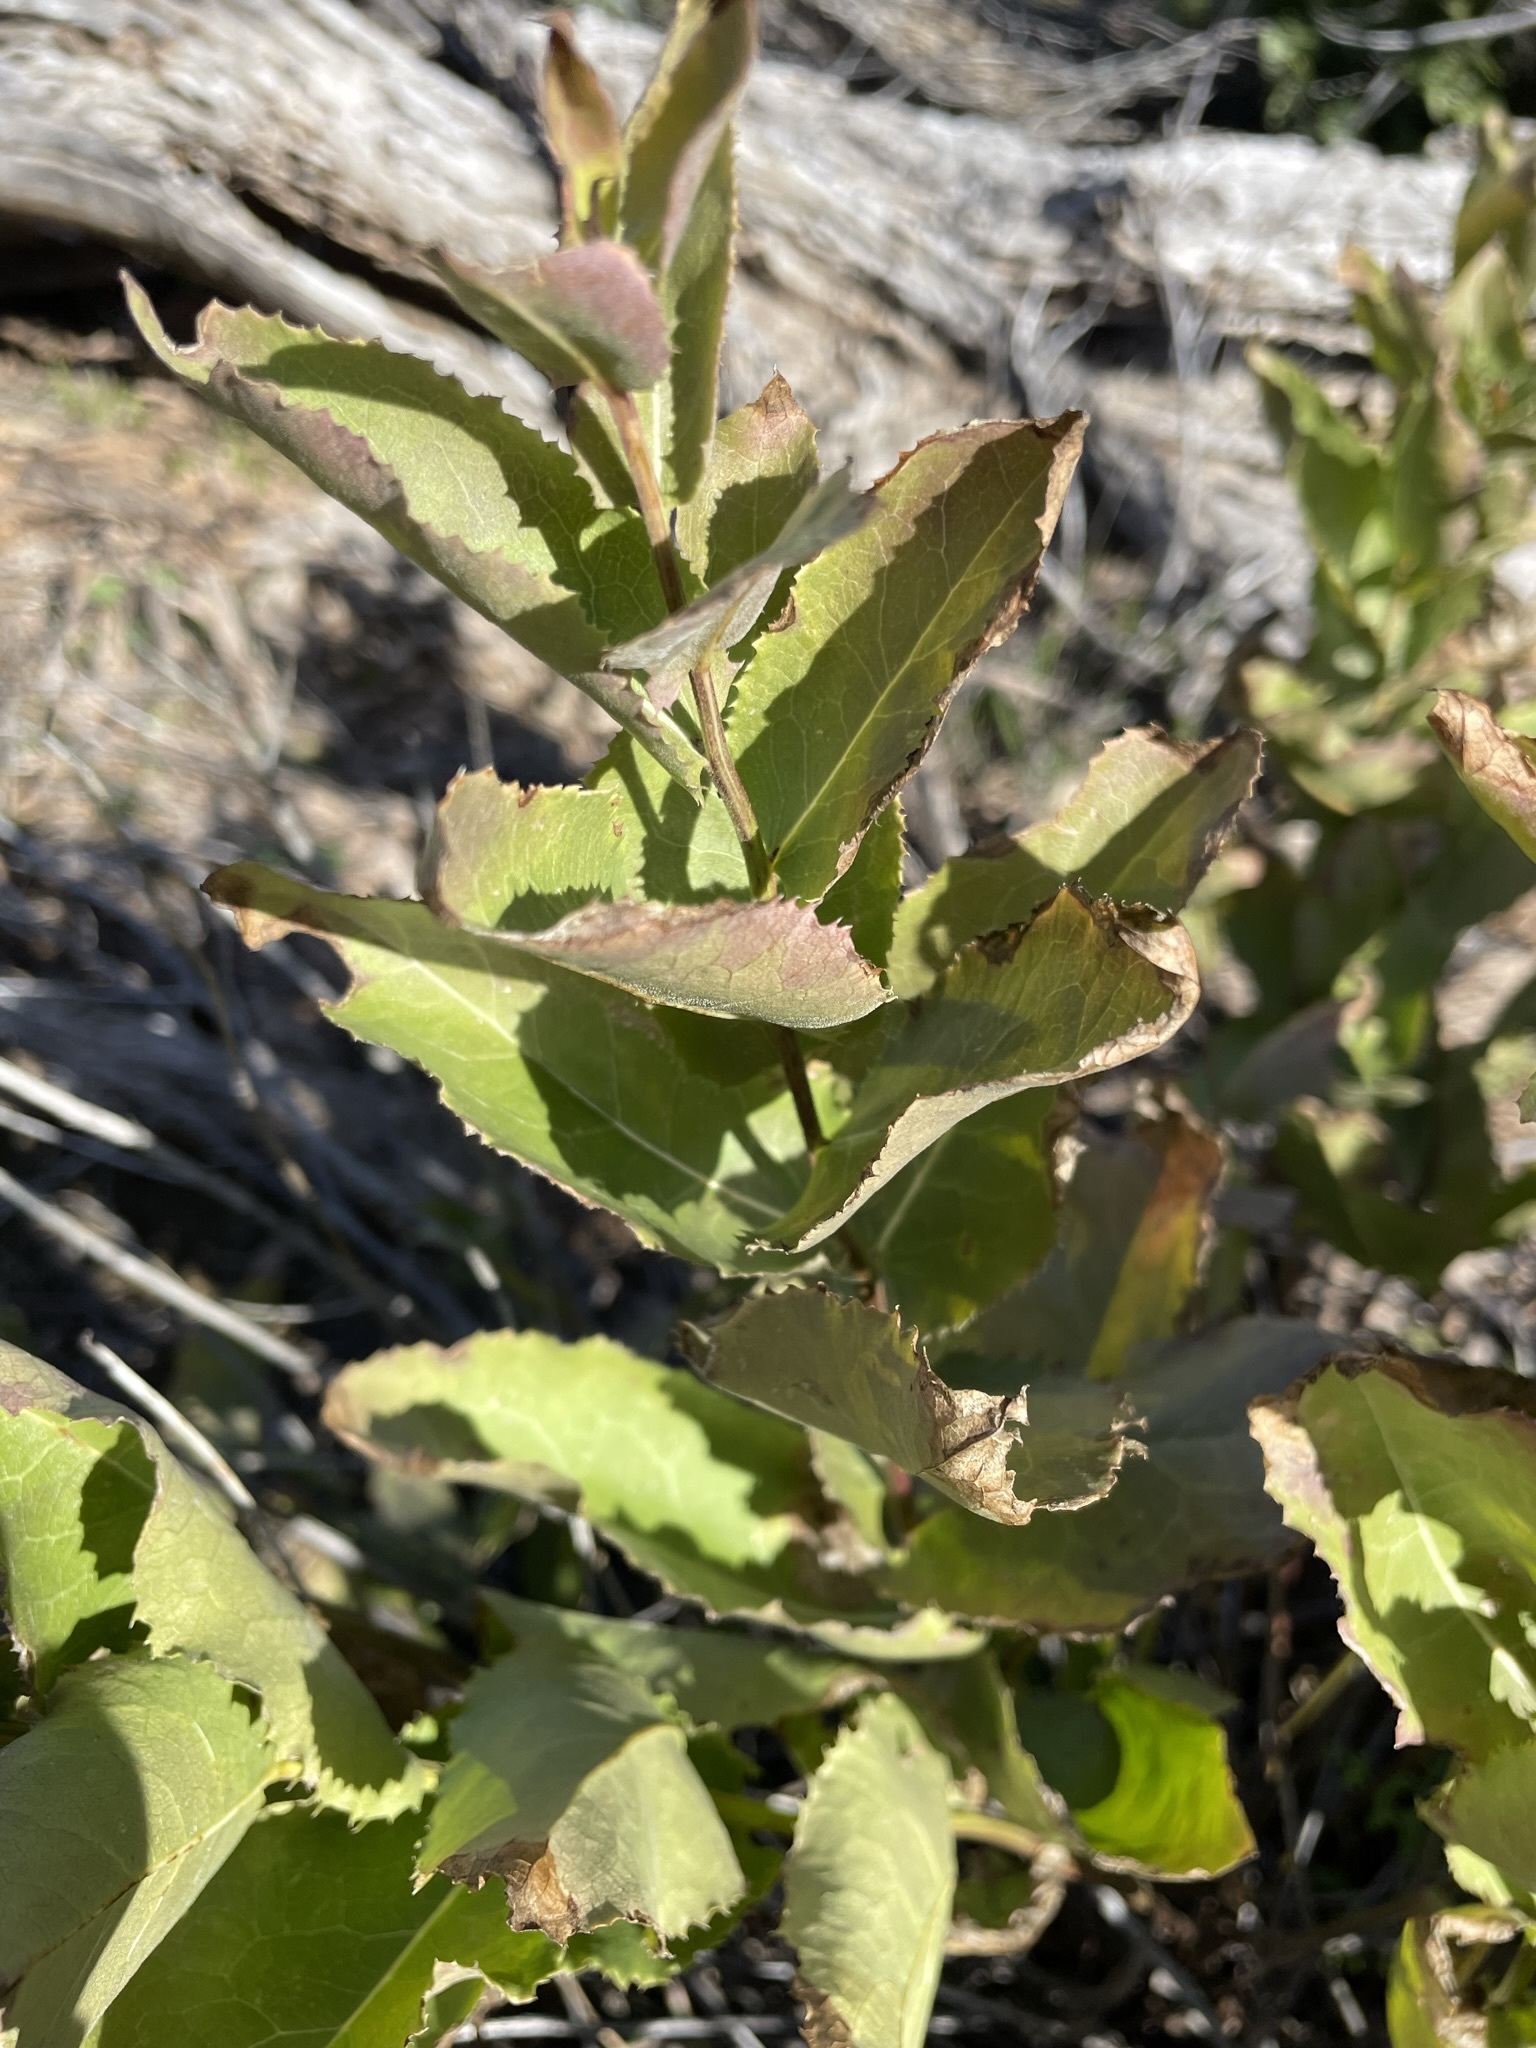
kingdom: Plantae
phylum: Tracheophyta
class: Magnoliopsida
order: Asterales
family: Asteraceae
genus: Acourtia
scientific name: Acourtia wrightii
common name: Brownfoot
